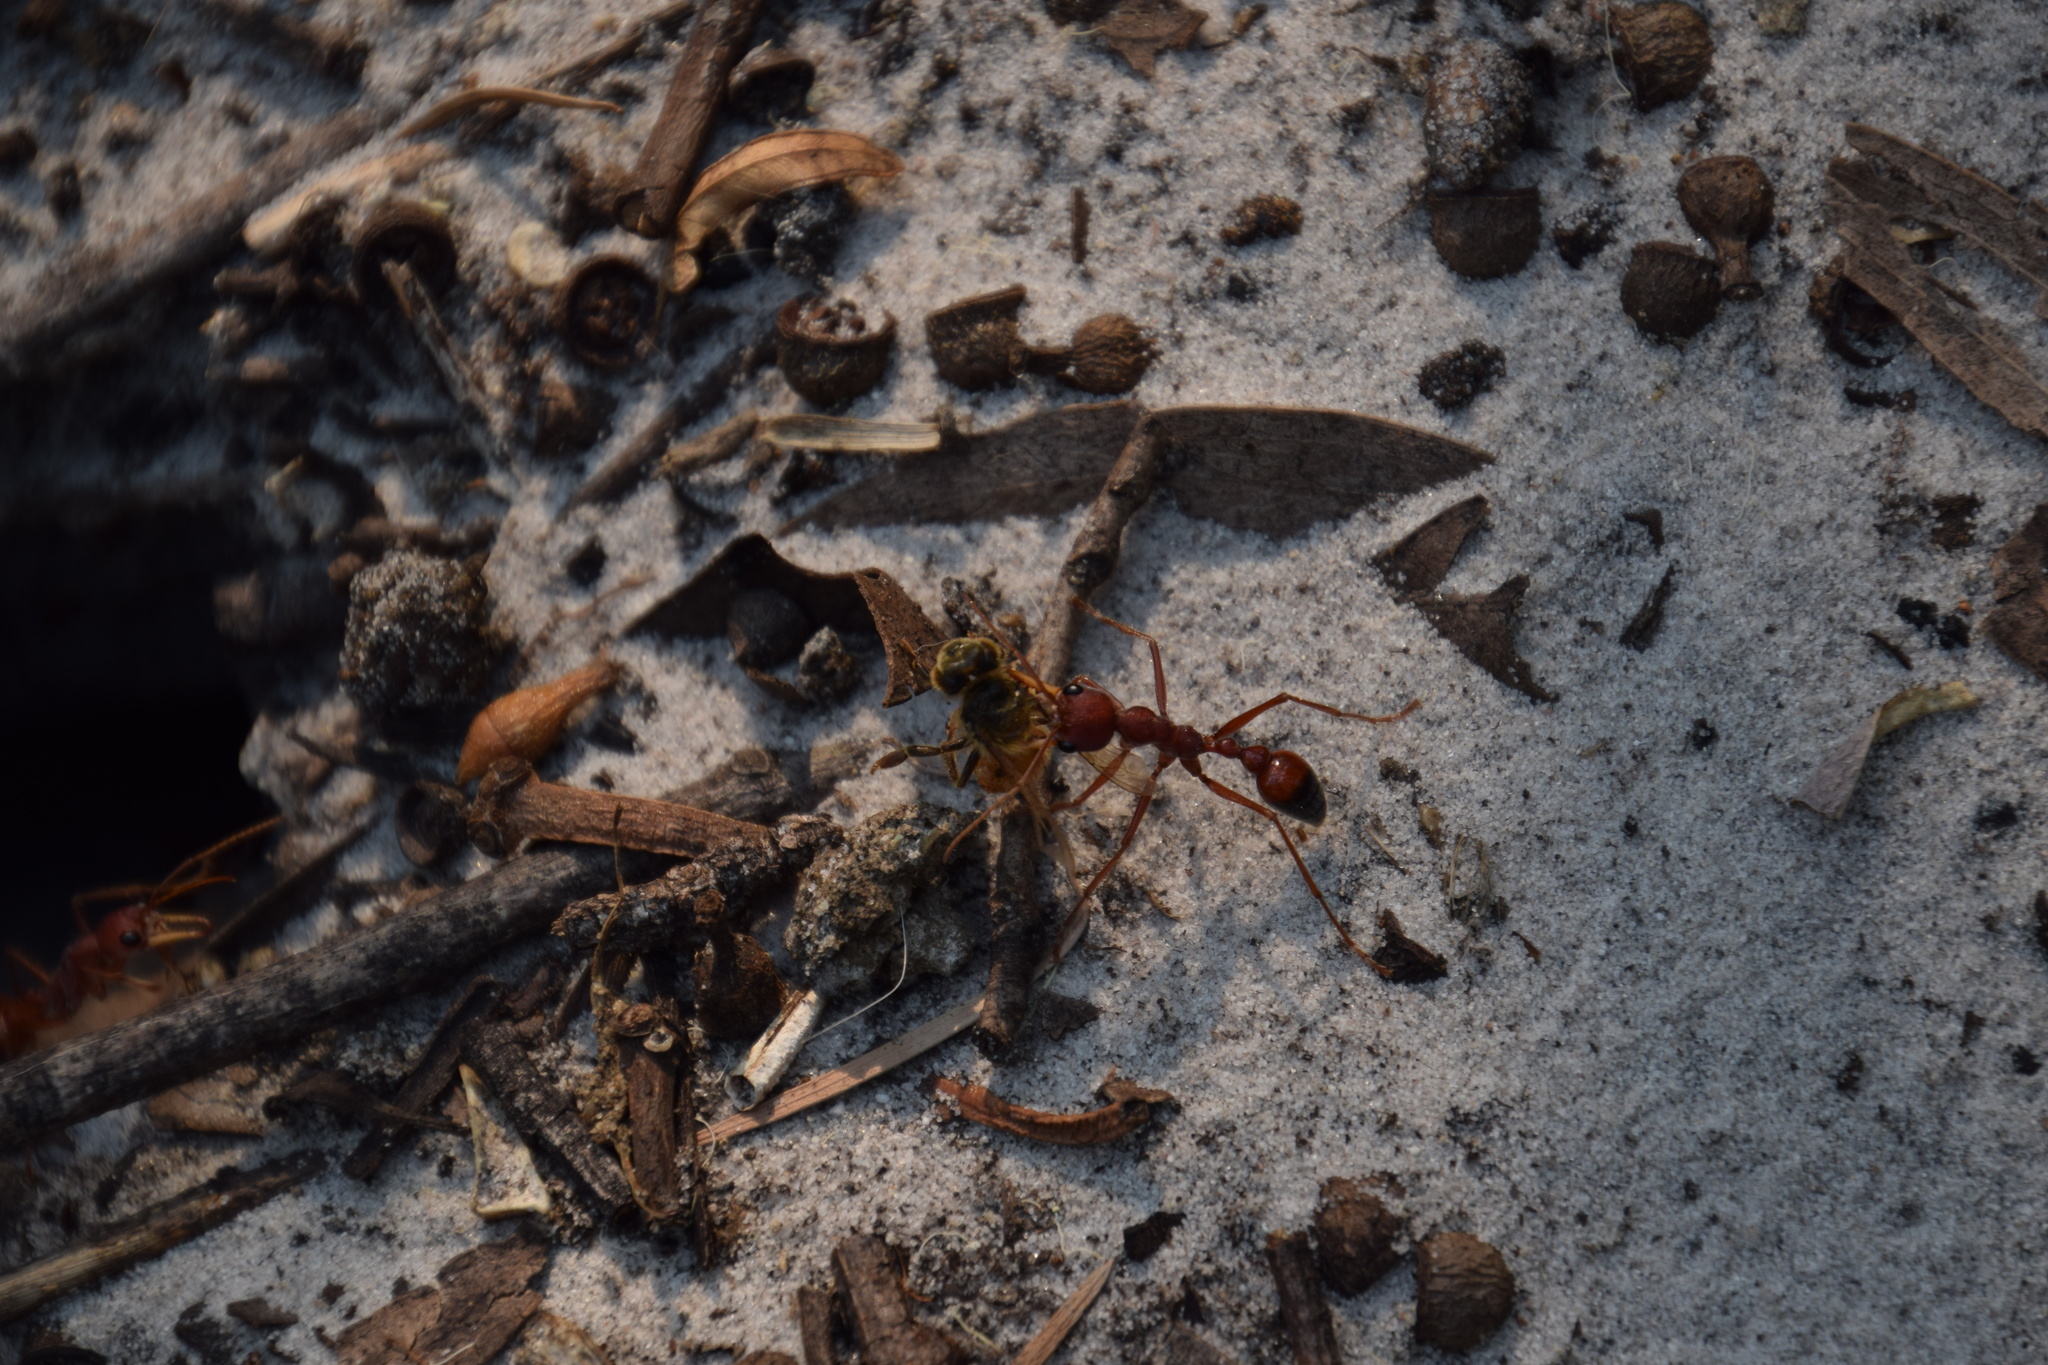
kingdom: Animalia
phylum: Arthropoda
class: Insecta
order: Hymenoptera
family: Formicidae
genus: Myrmecia
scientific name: Myrmecia gulosa
